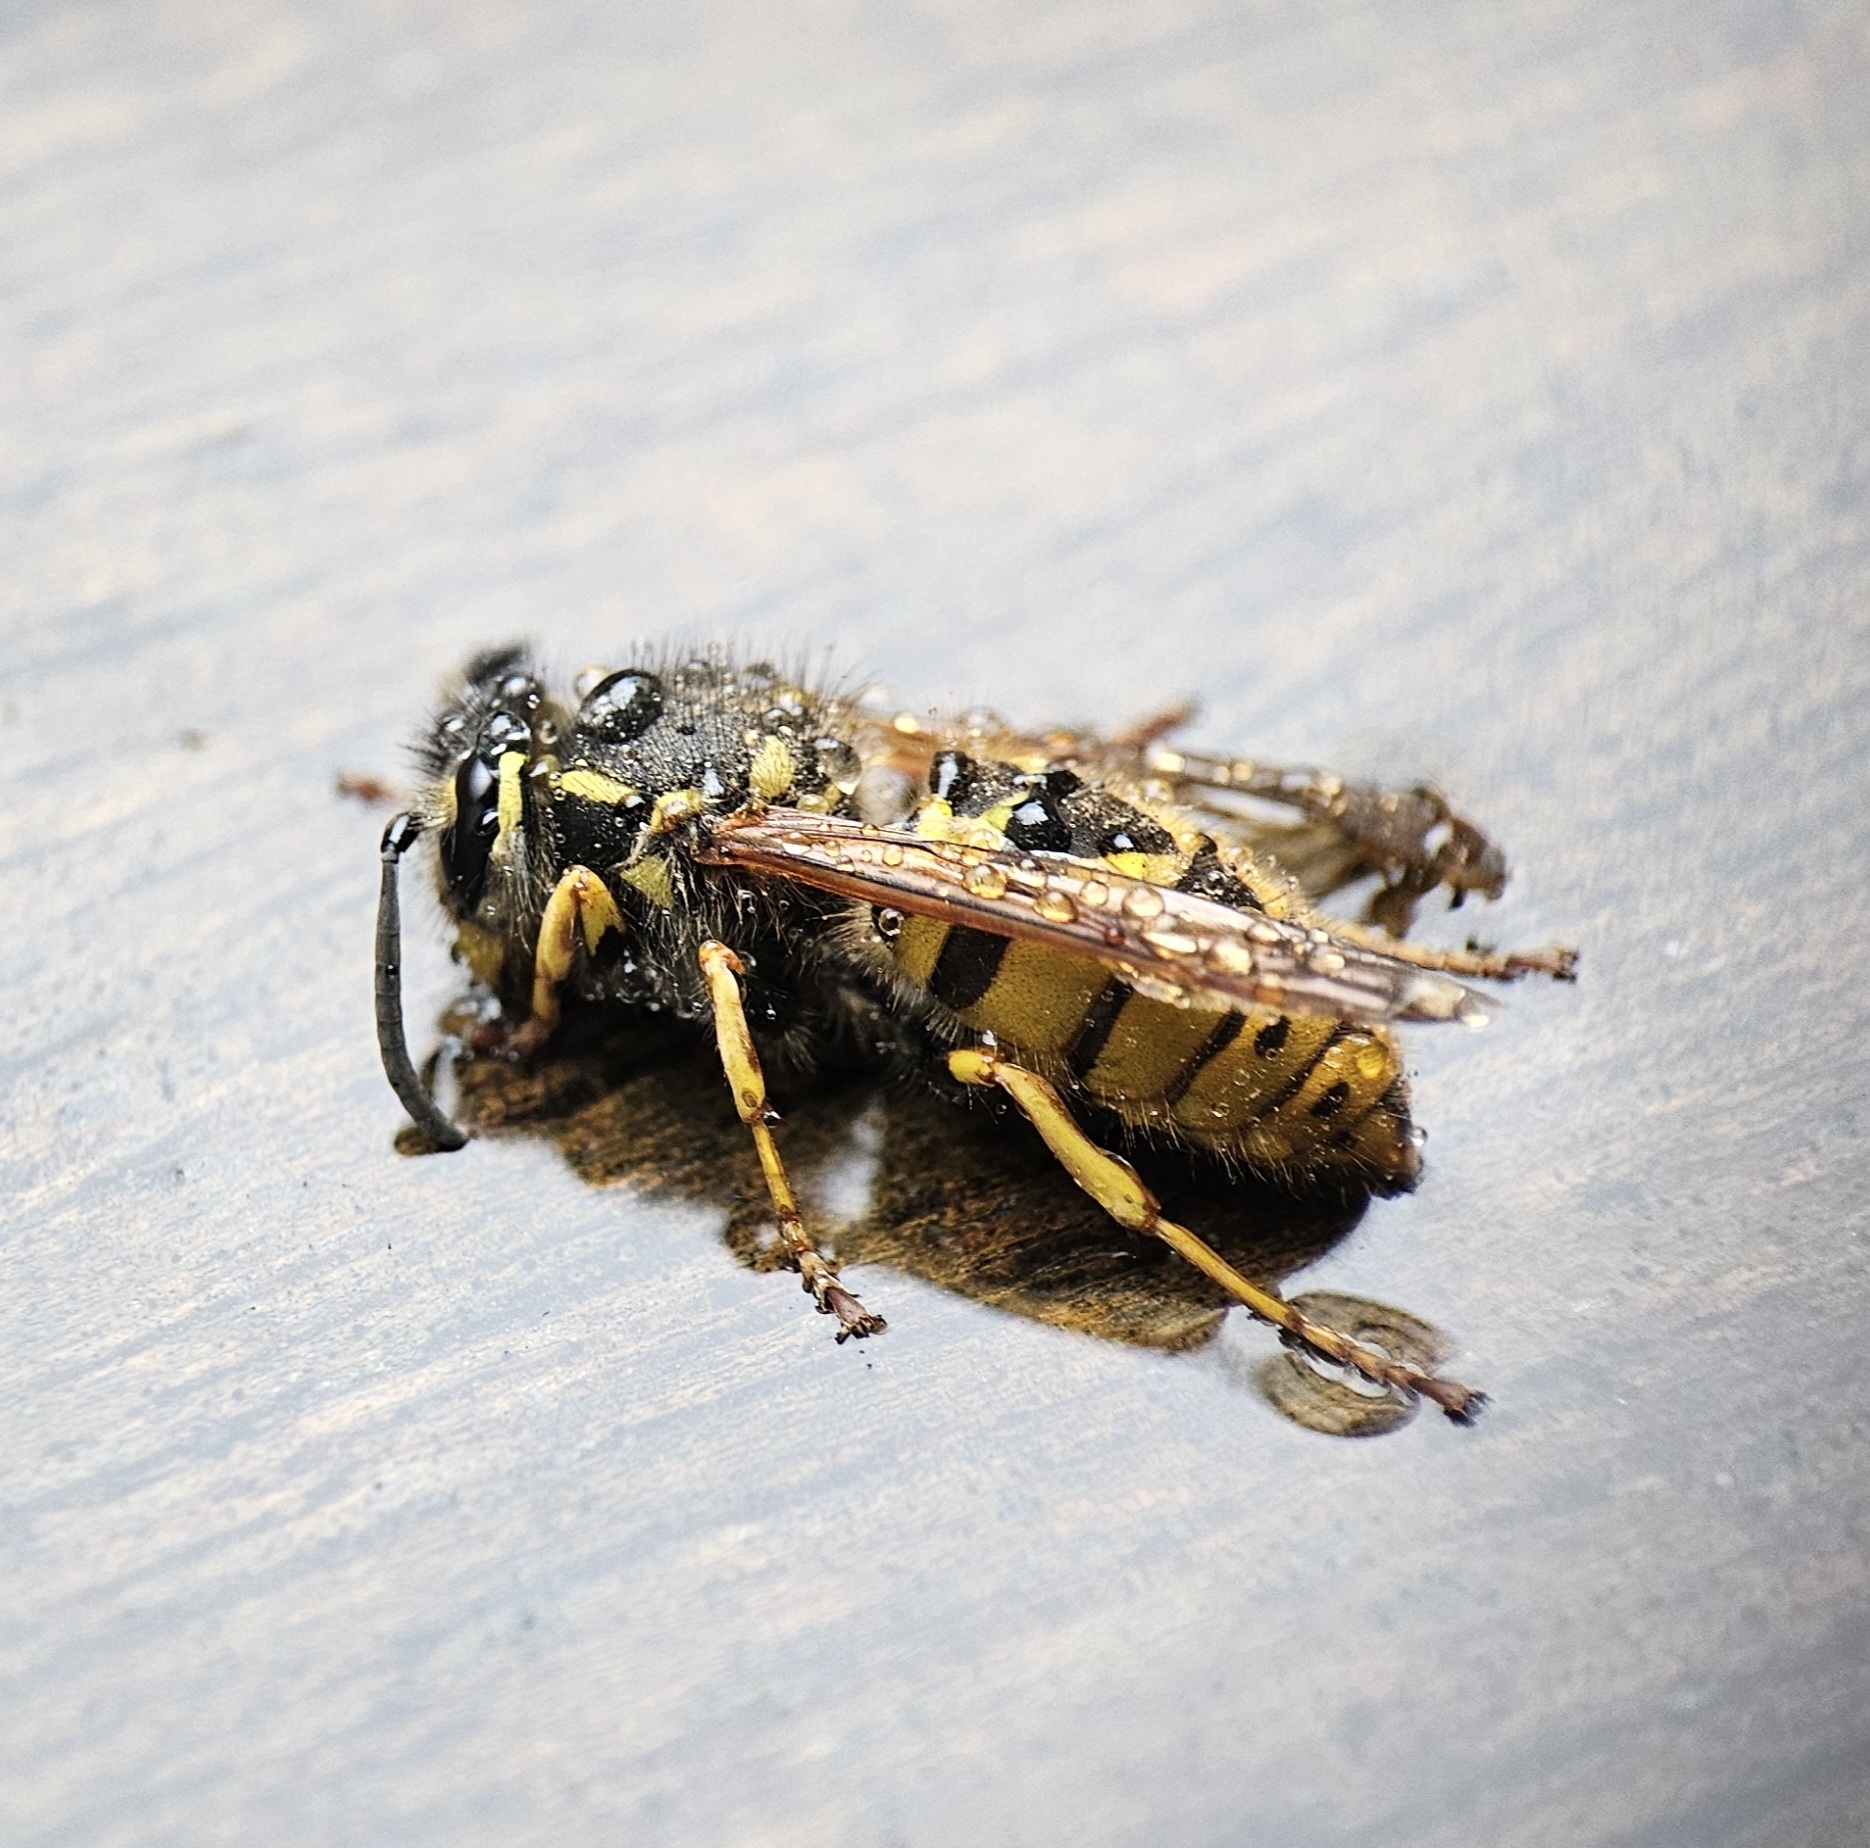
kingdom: Animalia
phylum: Arthropoda
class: Insecta
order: Hymenoptera
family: Vespidae
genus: Vespula
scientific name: Vespula germanica
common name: German wasp
